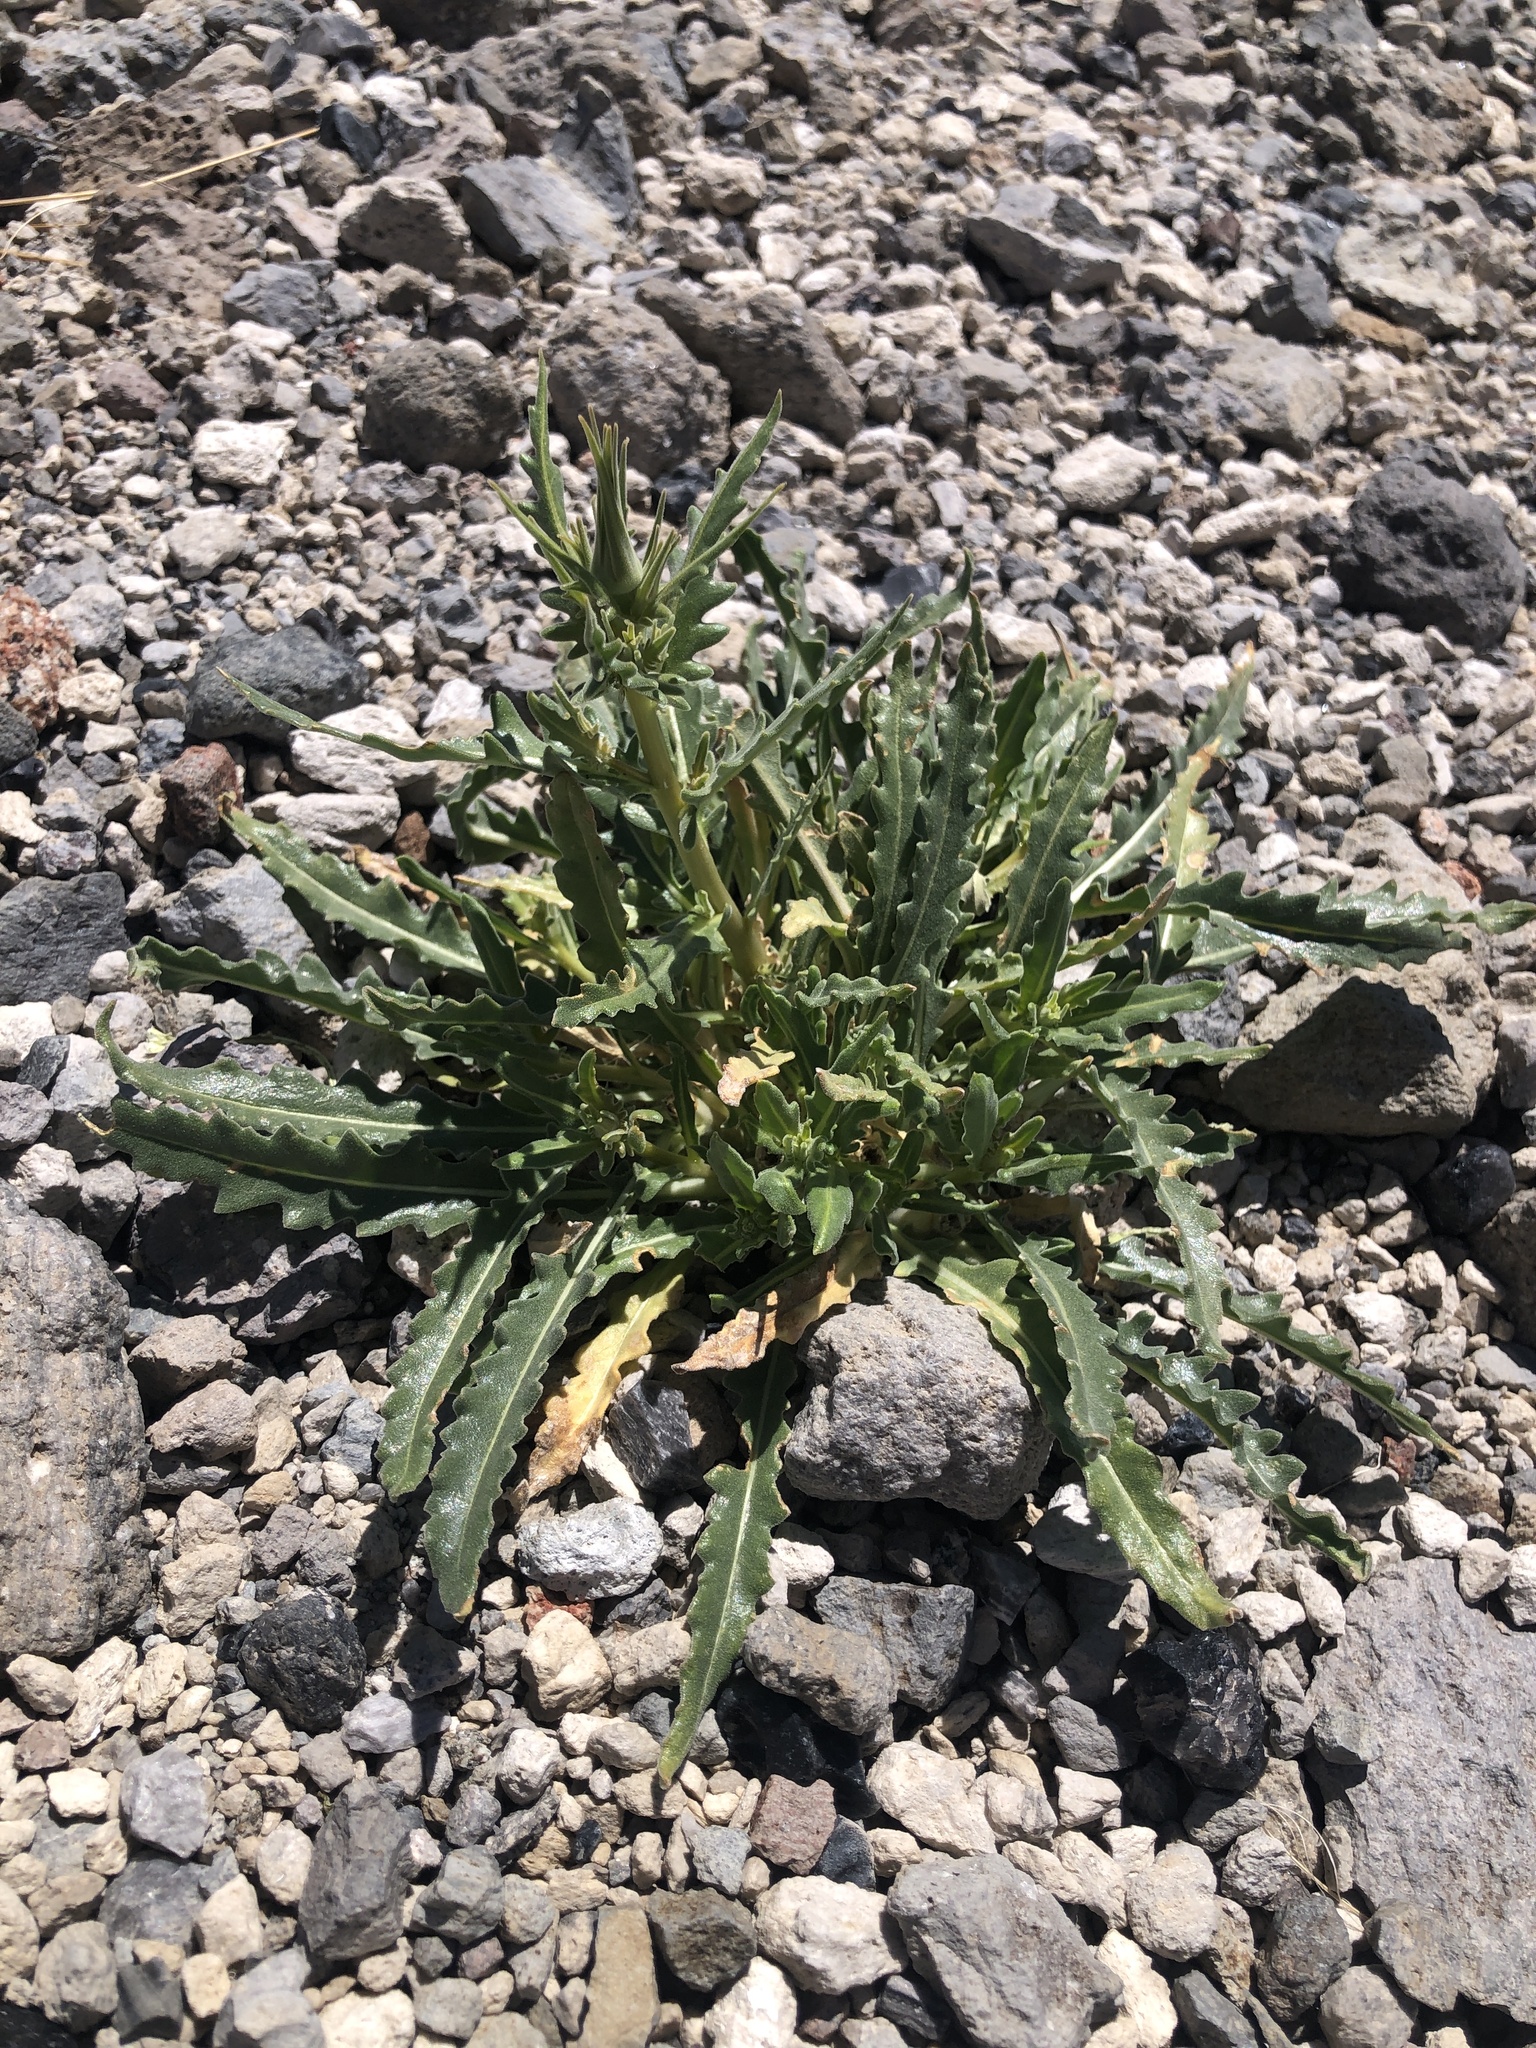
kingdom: Plantae
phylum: Tracheophyta
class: Magnoliopsida
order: Cornales
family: Loasaceae
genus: Mentzelia
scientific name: Mentzelia laevicaulis
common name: Smooth-stem blazingstar
